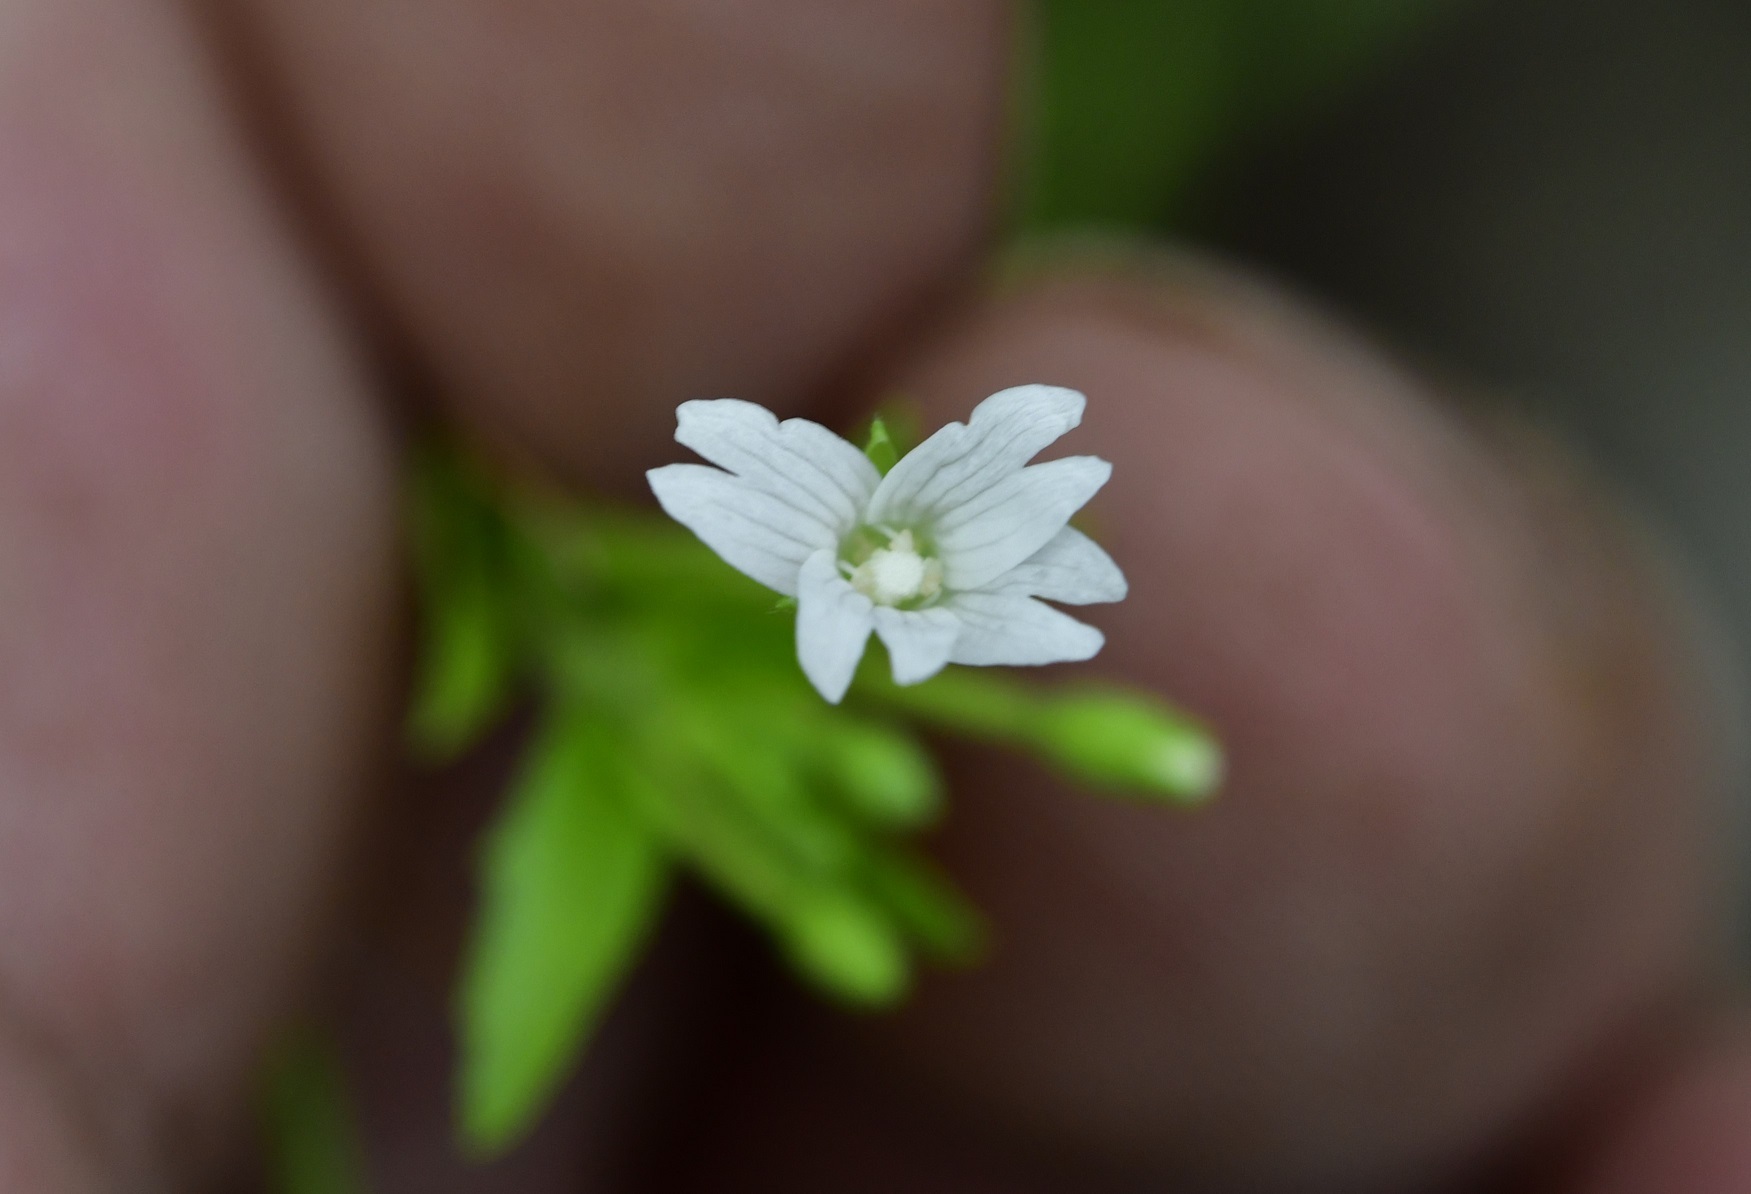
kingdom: Plantae
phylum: Tracheophyta
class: Magnoliopsida
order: Myrtales
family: Onagraceae
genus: Epilobium
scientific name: Epilobium ciliatum
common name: American willowherb
